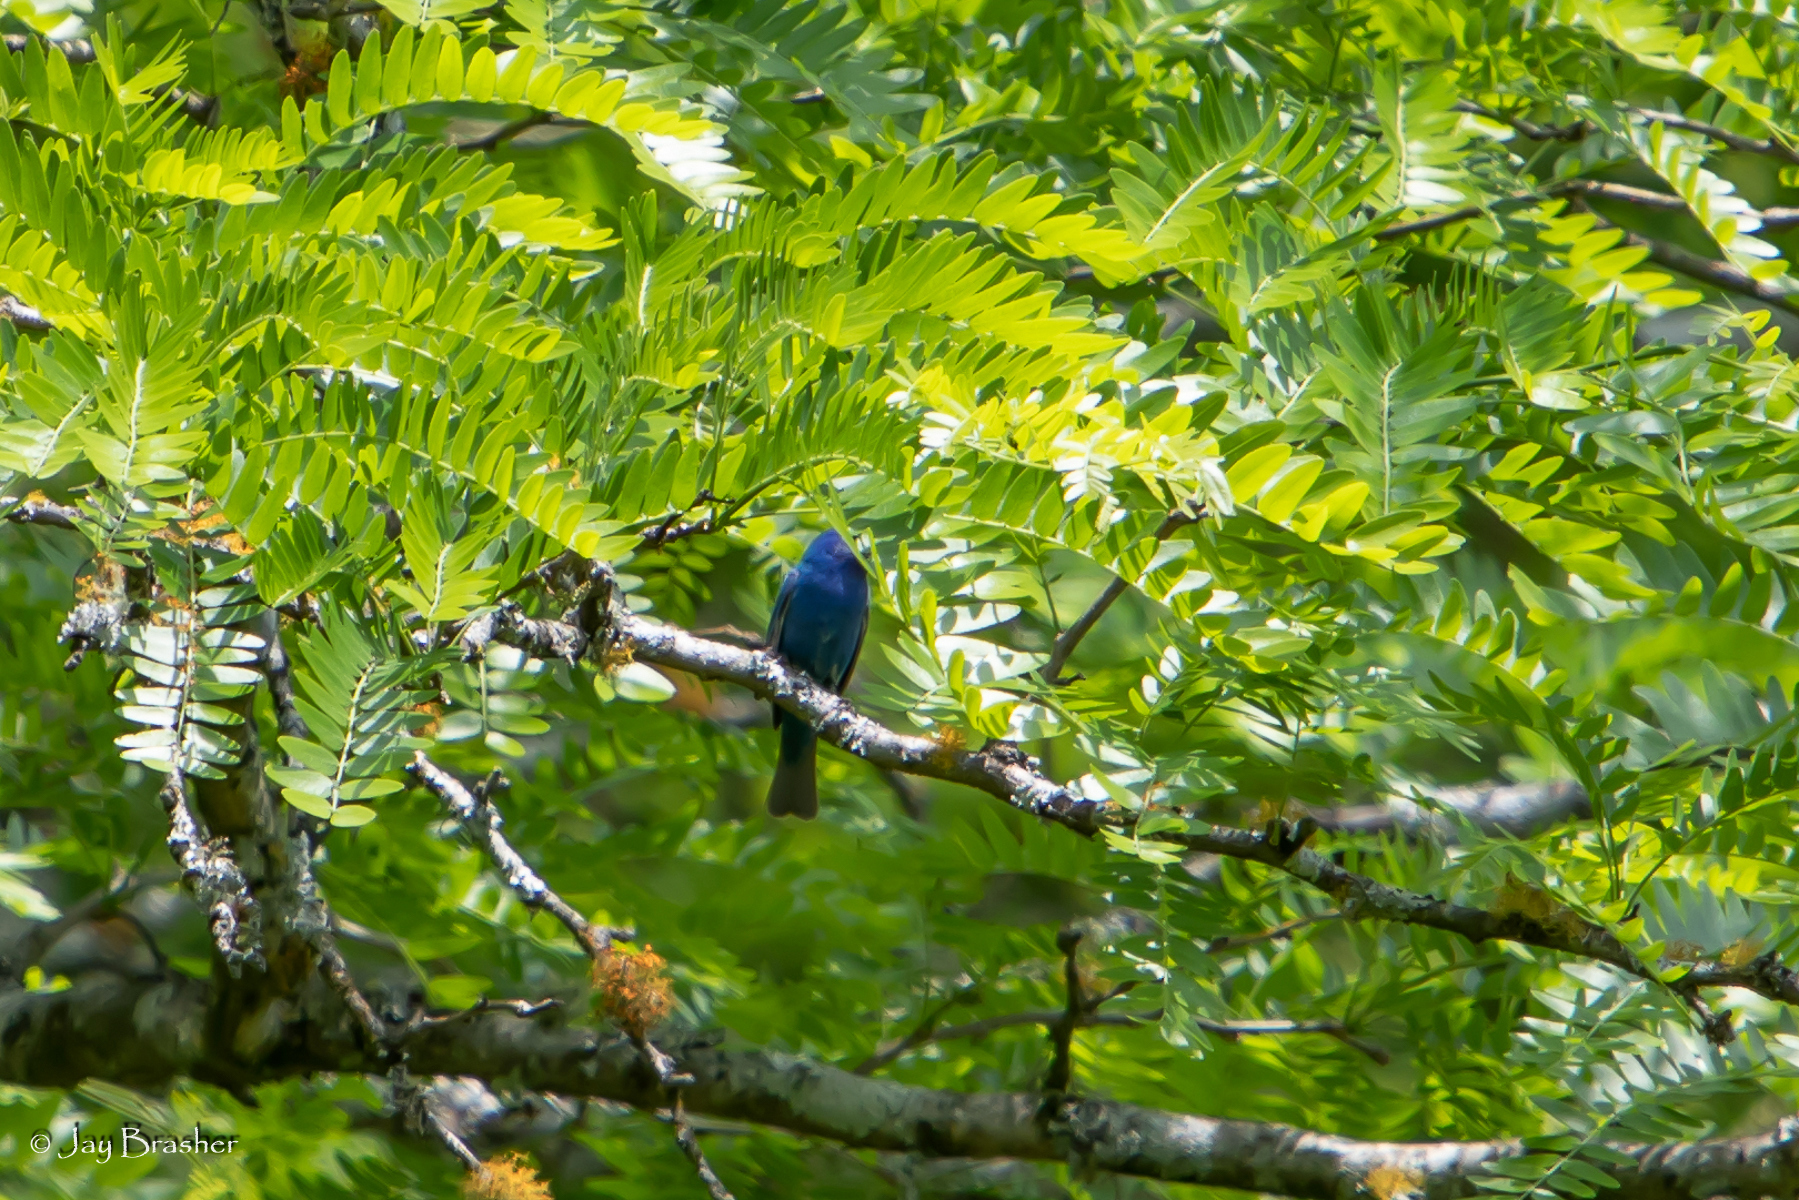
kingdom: Animalia
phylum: Chordata
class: Aves
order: Passeriformes
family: Cardinalidae
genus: Passerina
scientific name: Passerina cyanea
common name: Indigo bunting
